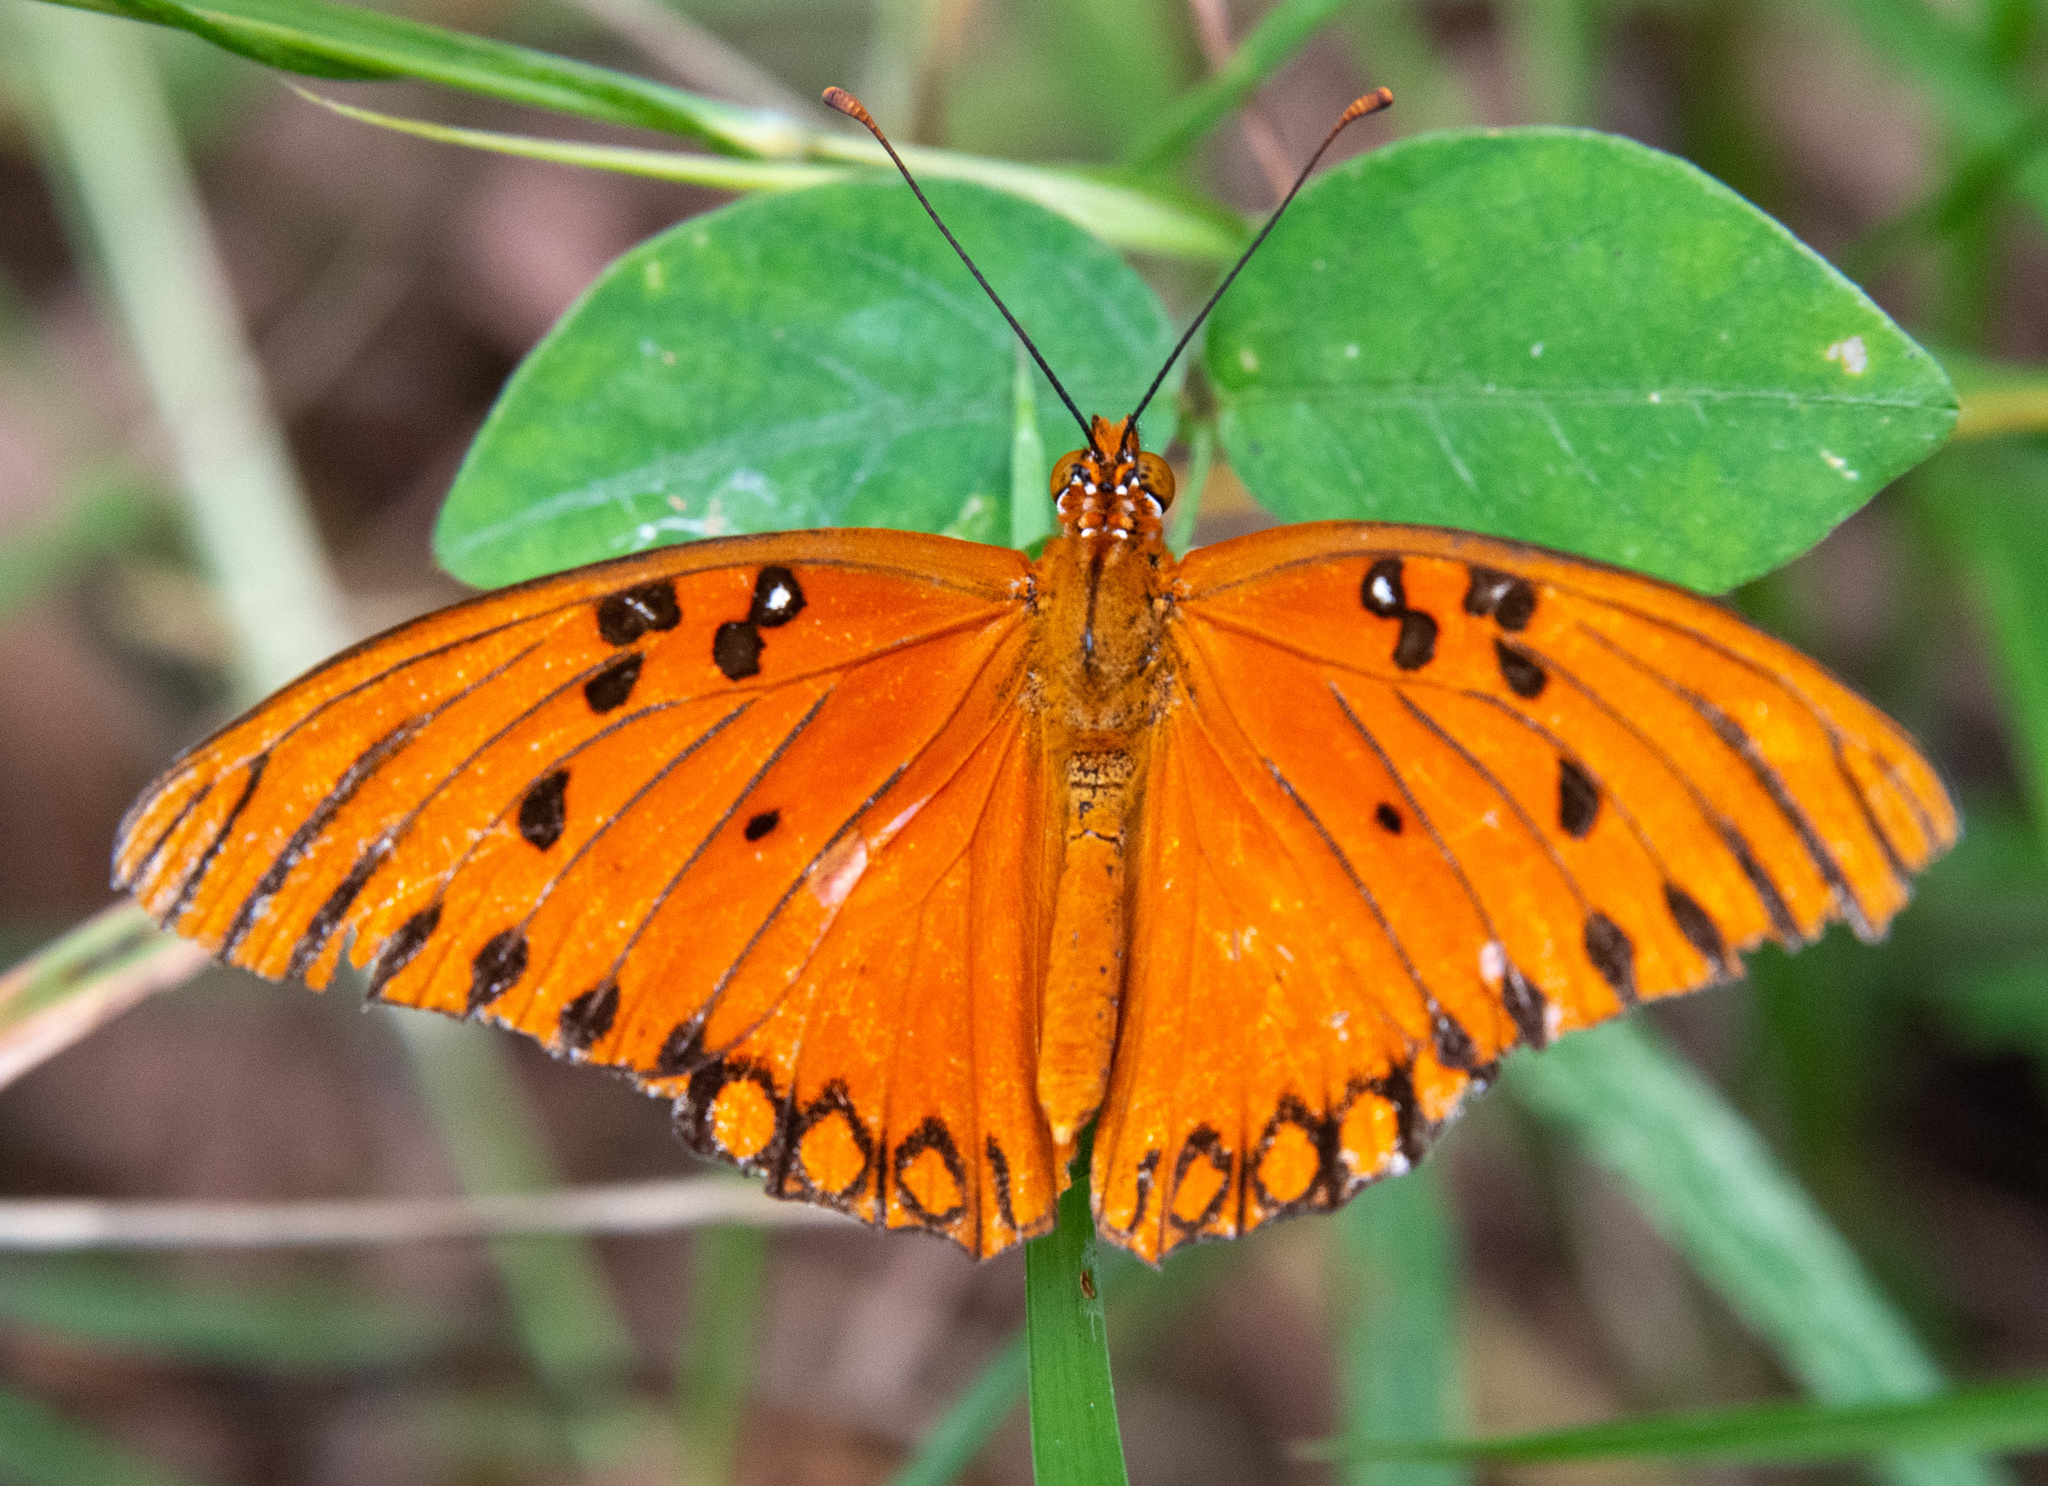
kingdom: Animalia
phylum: Arthropoda
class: Insecta
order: Lepidoptera
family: Nymphalidae
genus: Dione
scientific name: Dione vanillae
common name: Gulf fritillary
